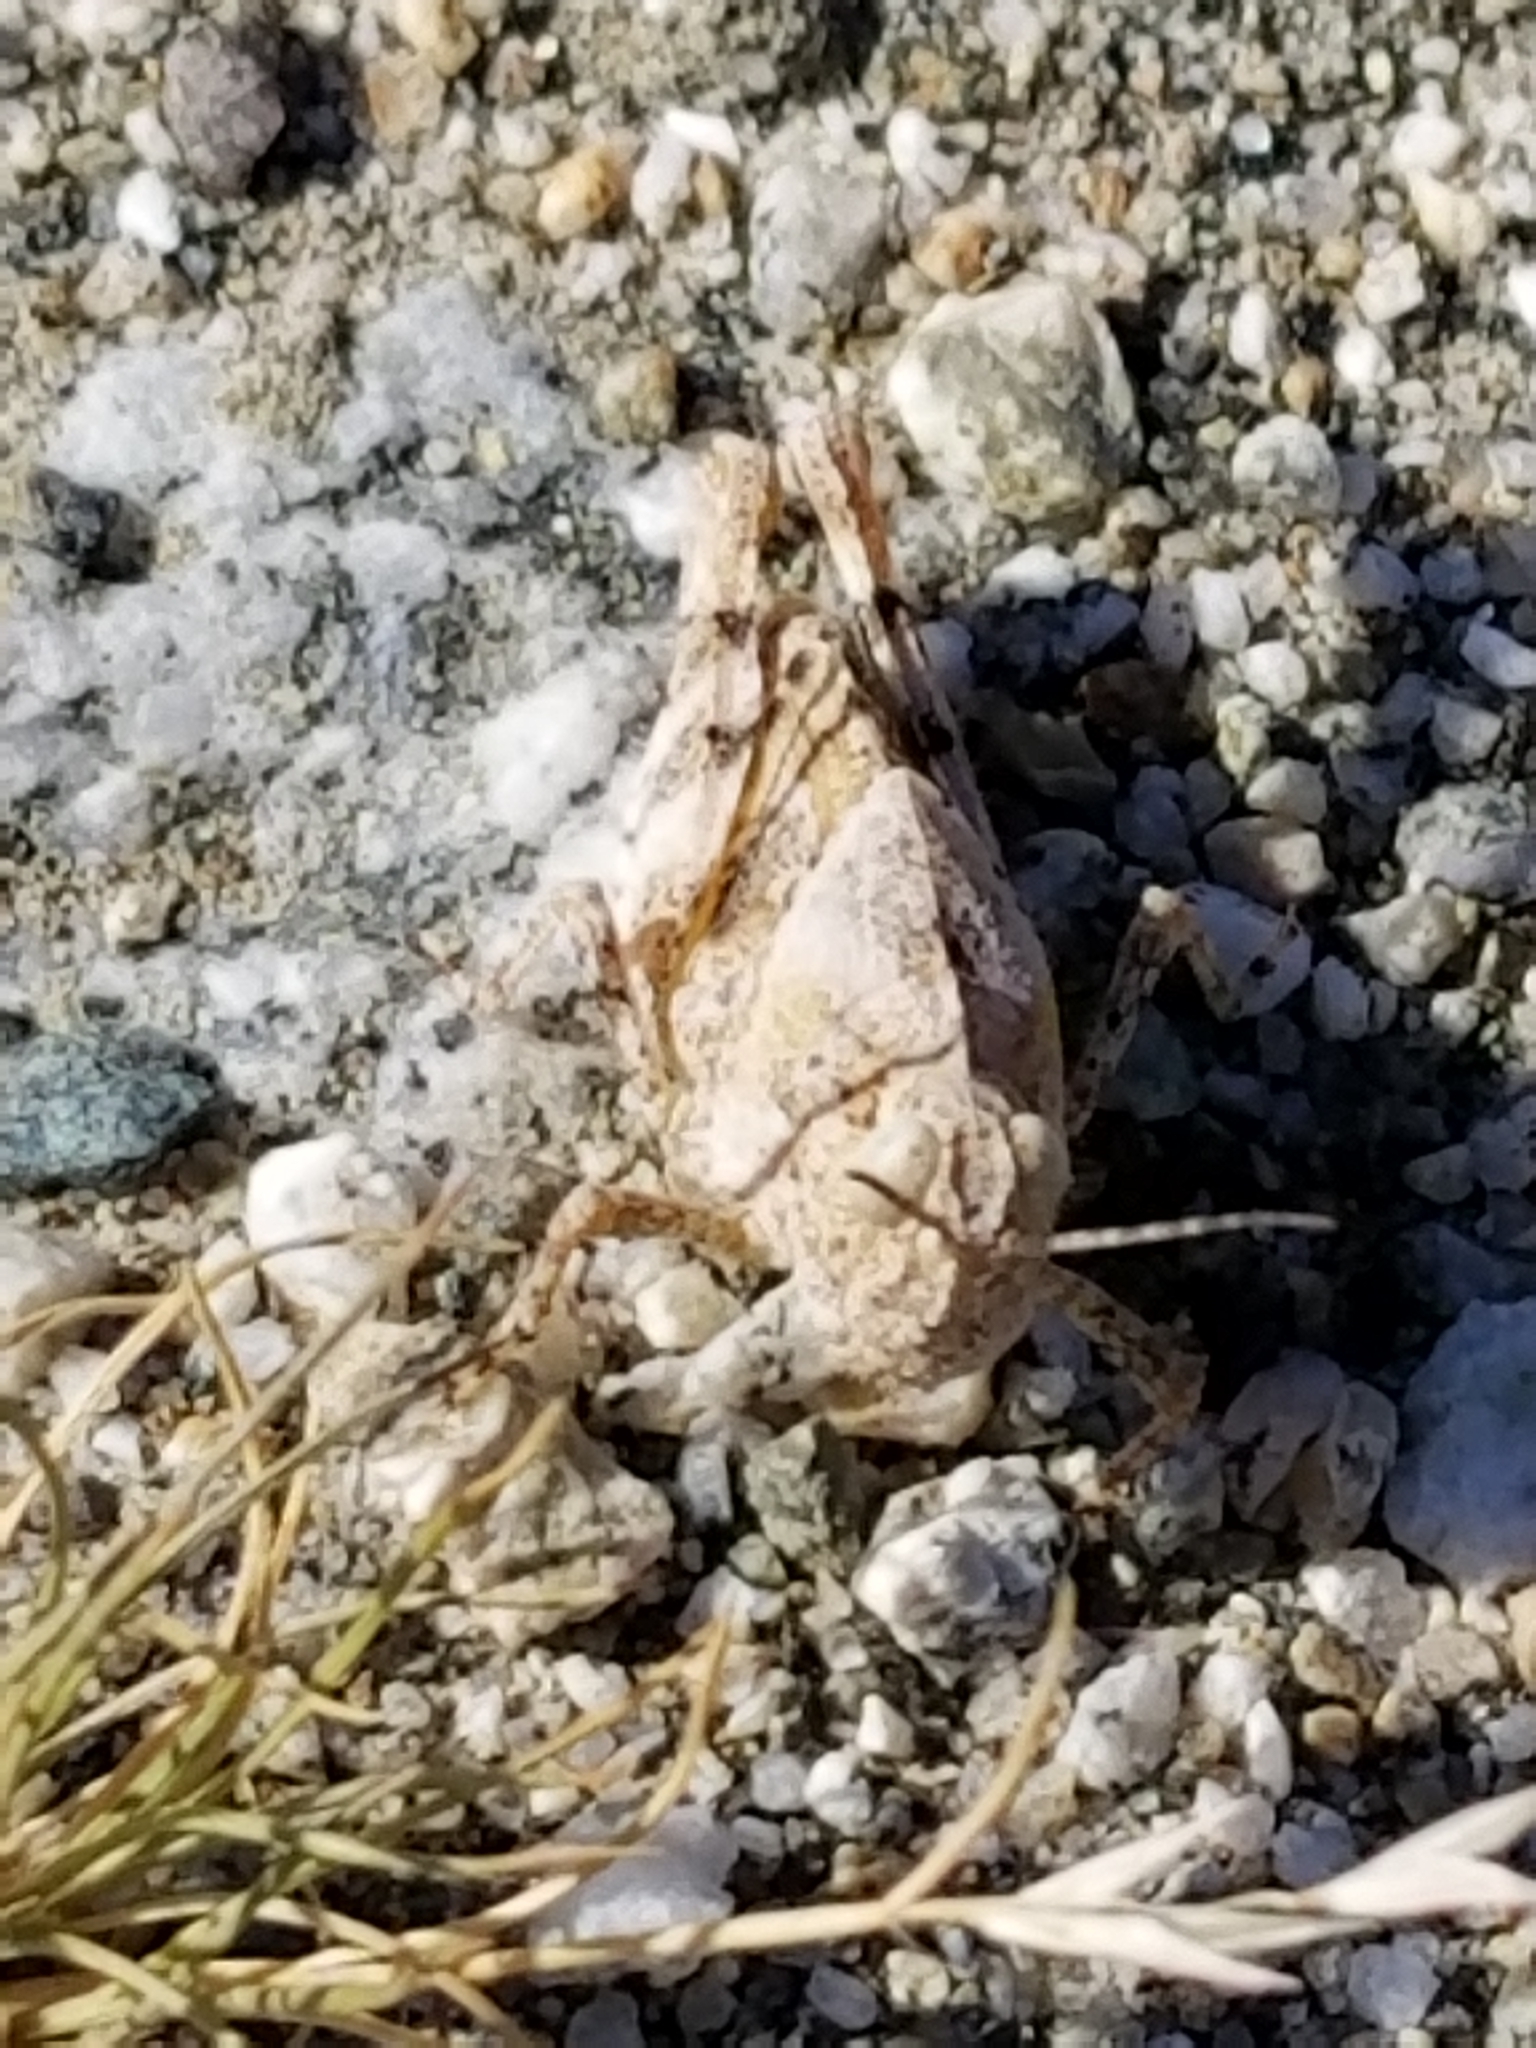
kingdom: Animalia
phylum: Arthropoda
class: Insecta
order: Orthoptera
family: Acrididae
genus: Trimerotropis
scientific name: Trimerotropis pallidipennis
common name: Pallid-winged grasshopper
